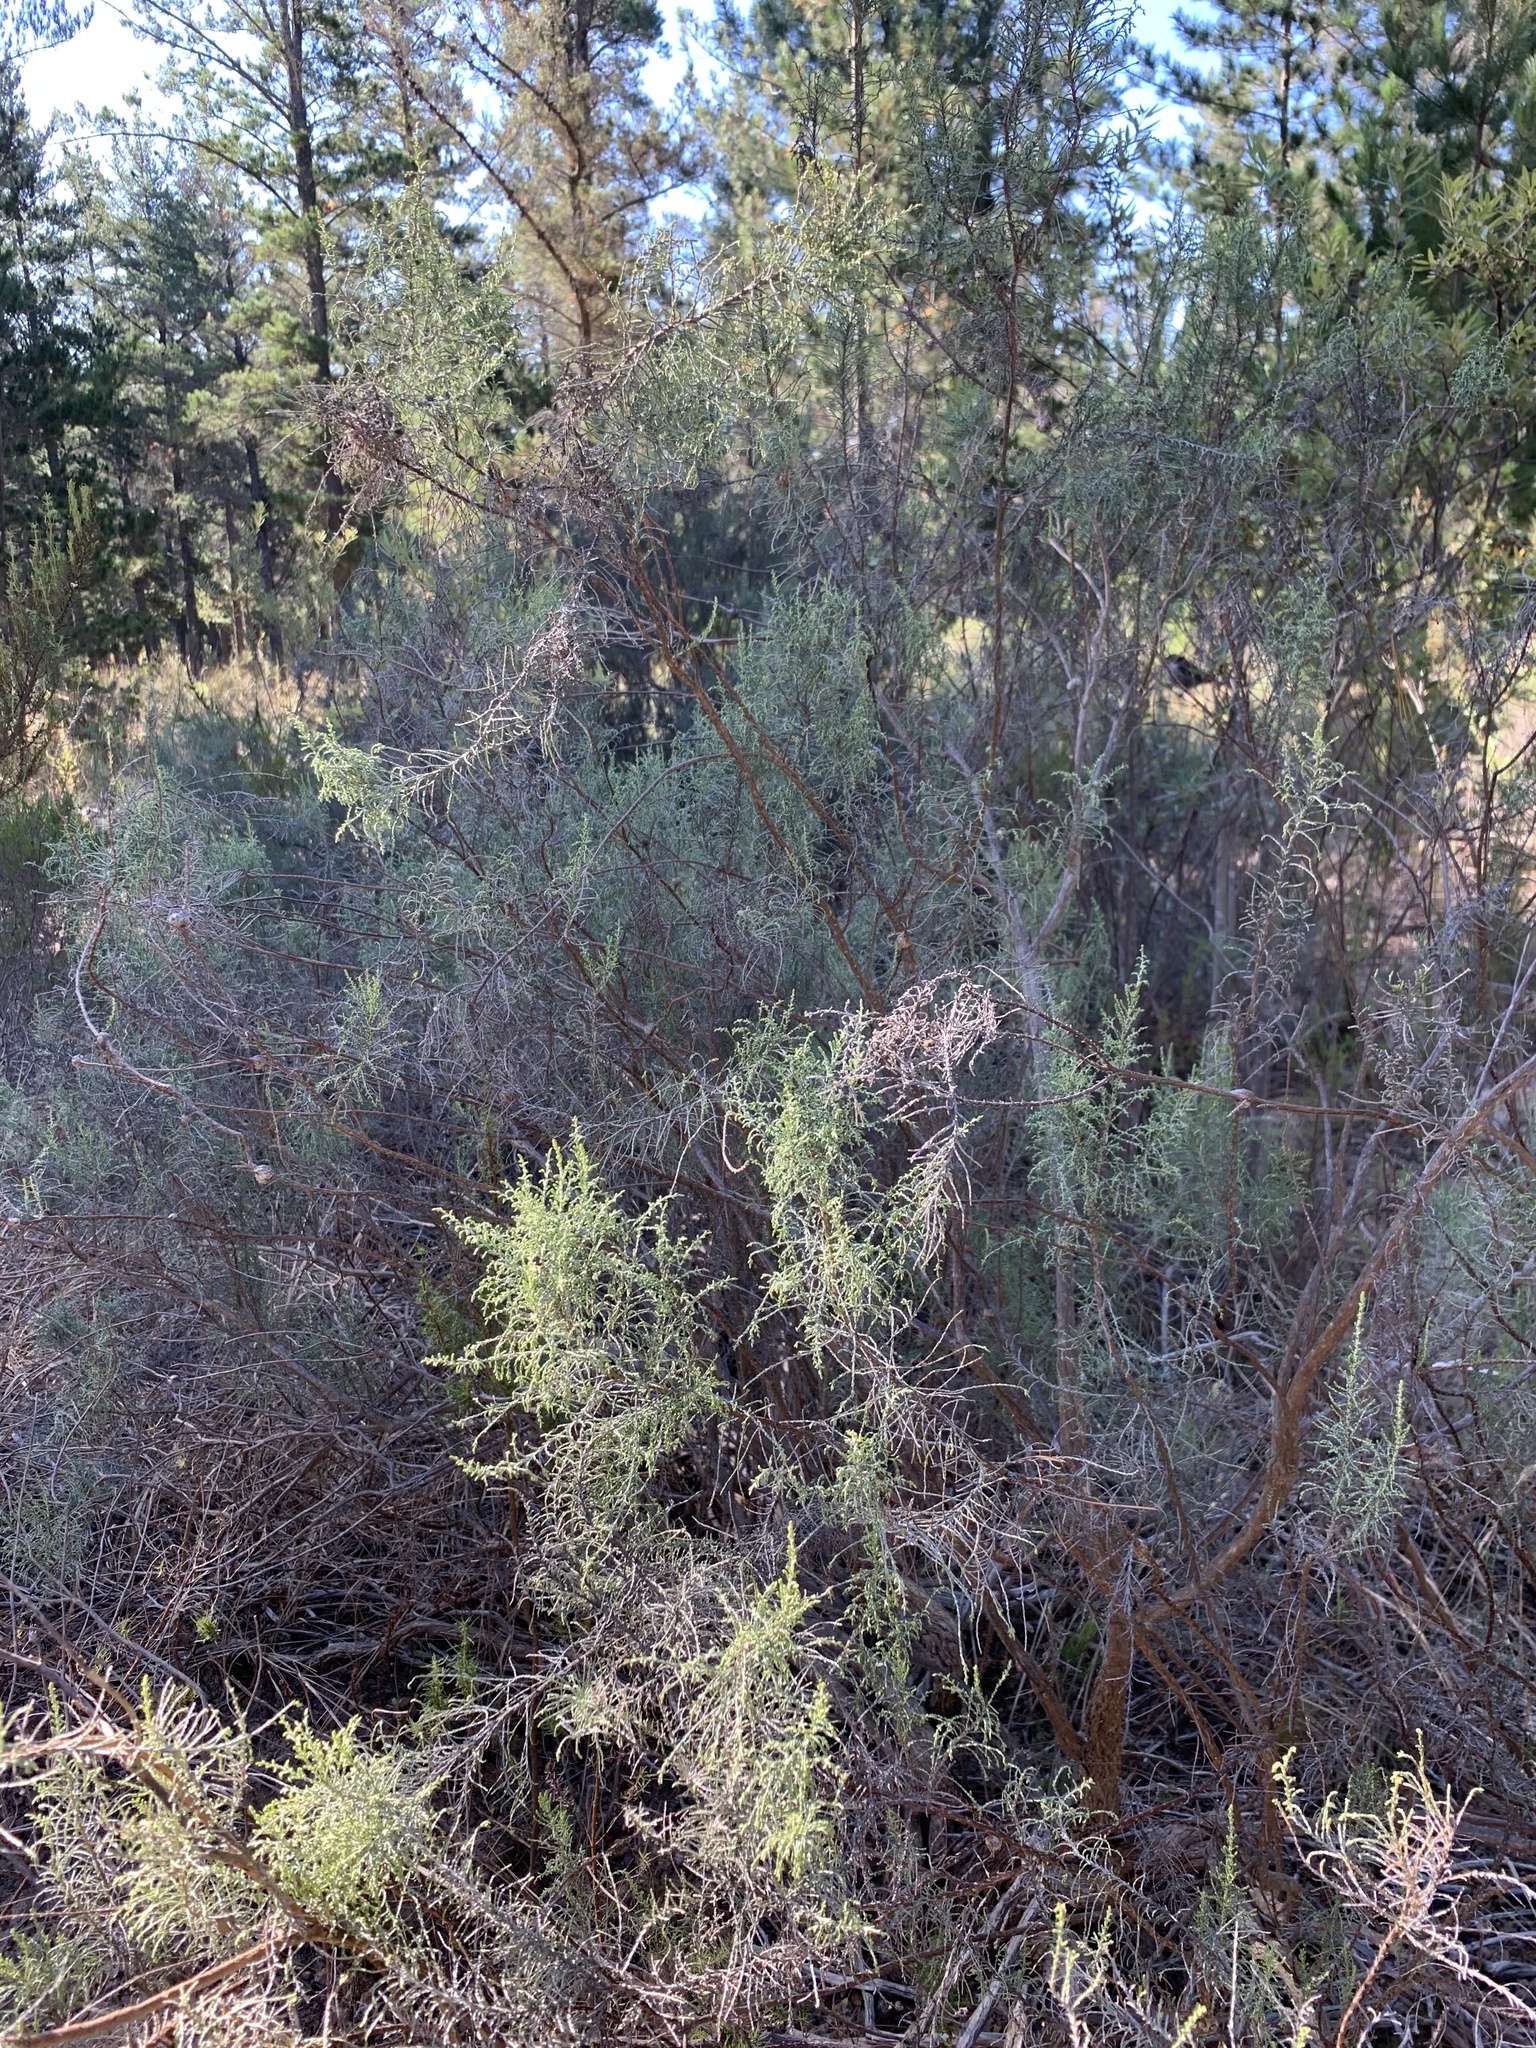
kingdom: Plantae
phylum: Tracheophyta
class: Magnoliopsida
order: Asterales
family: Asteraceae
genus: Dicerothamnus
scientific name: Dicerothamnus rhinocerotis
